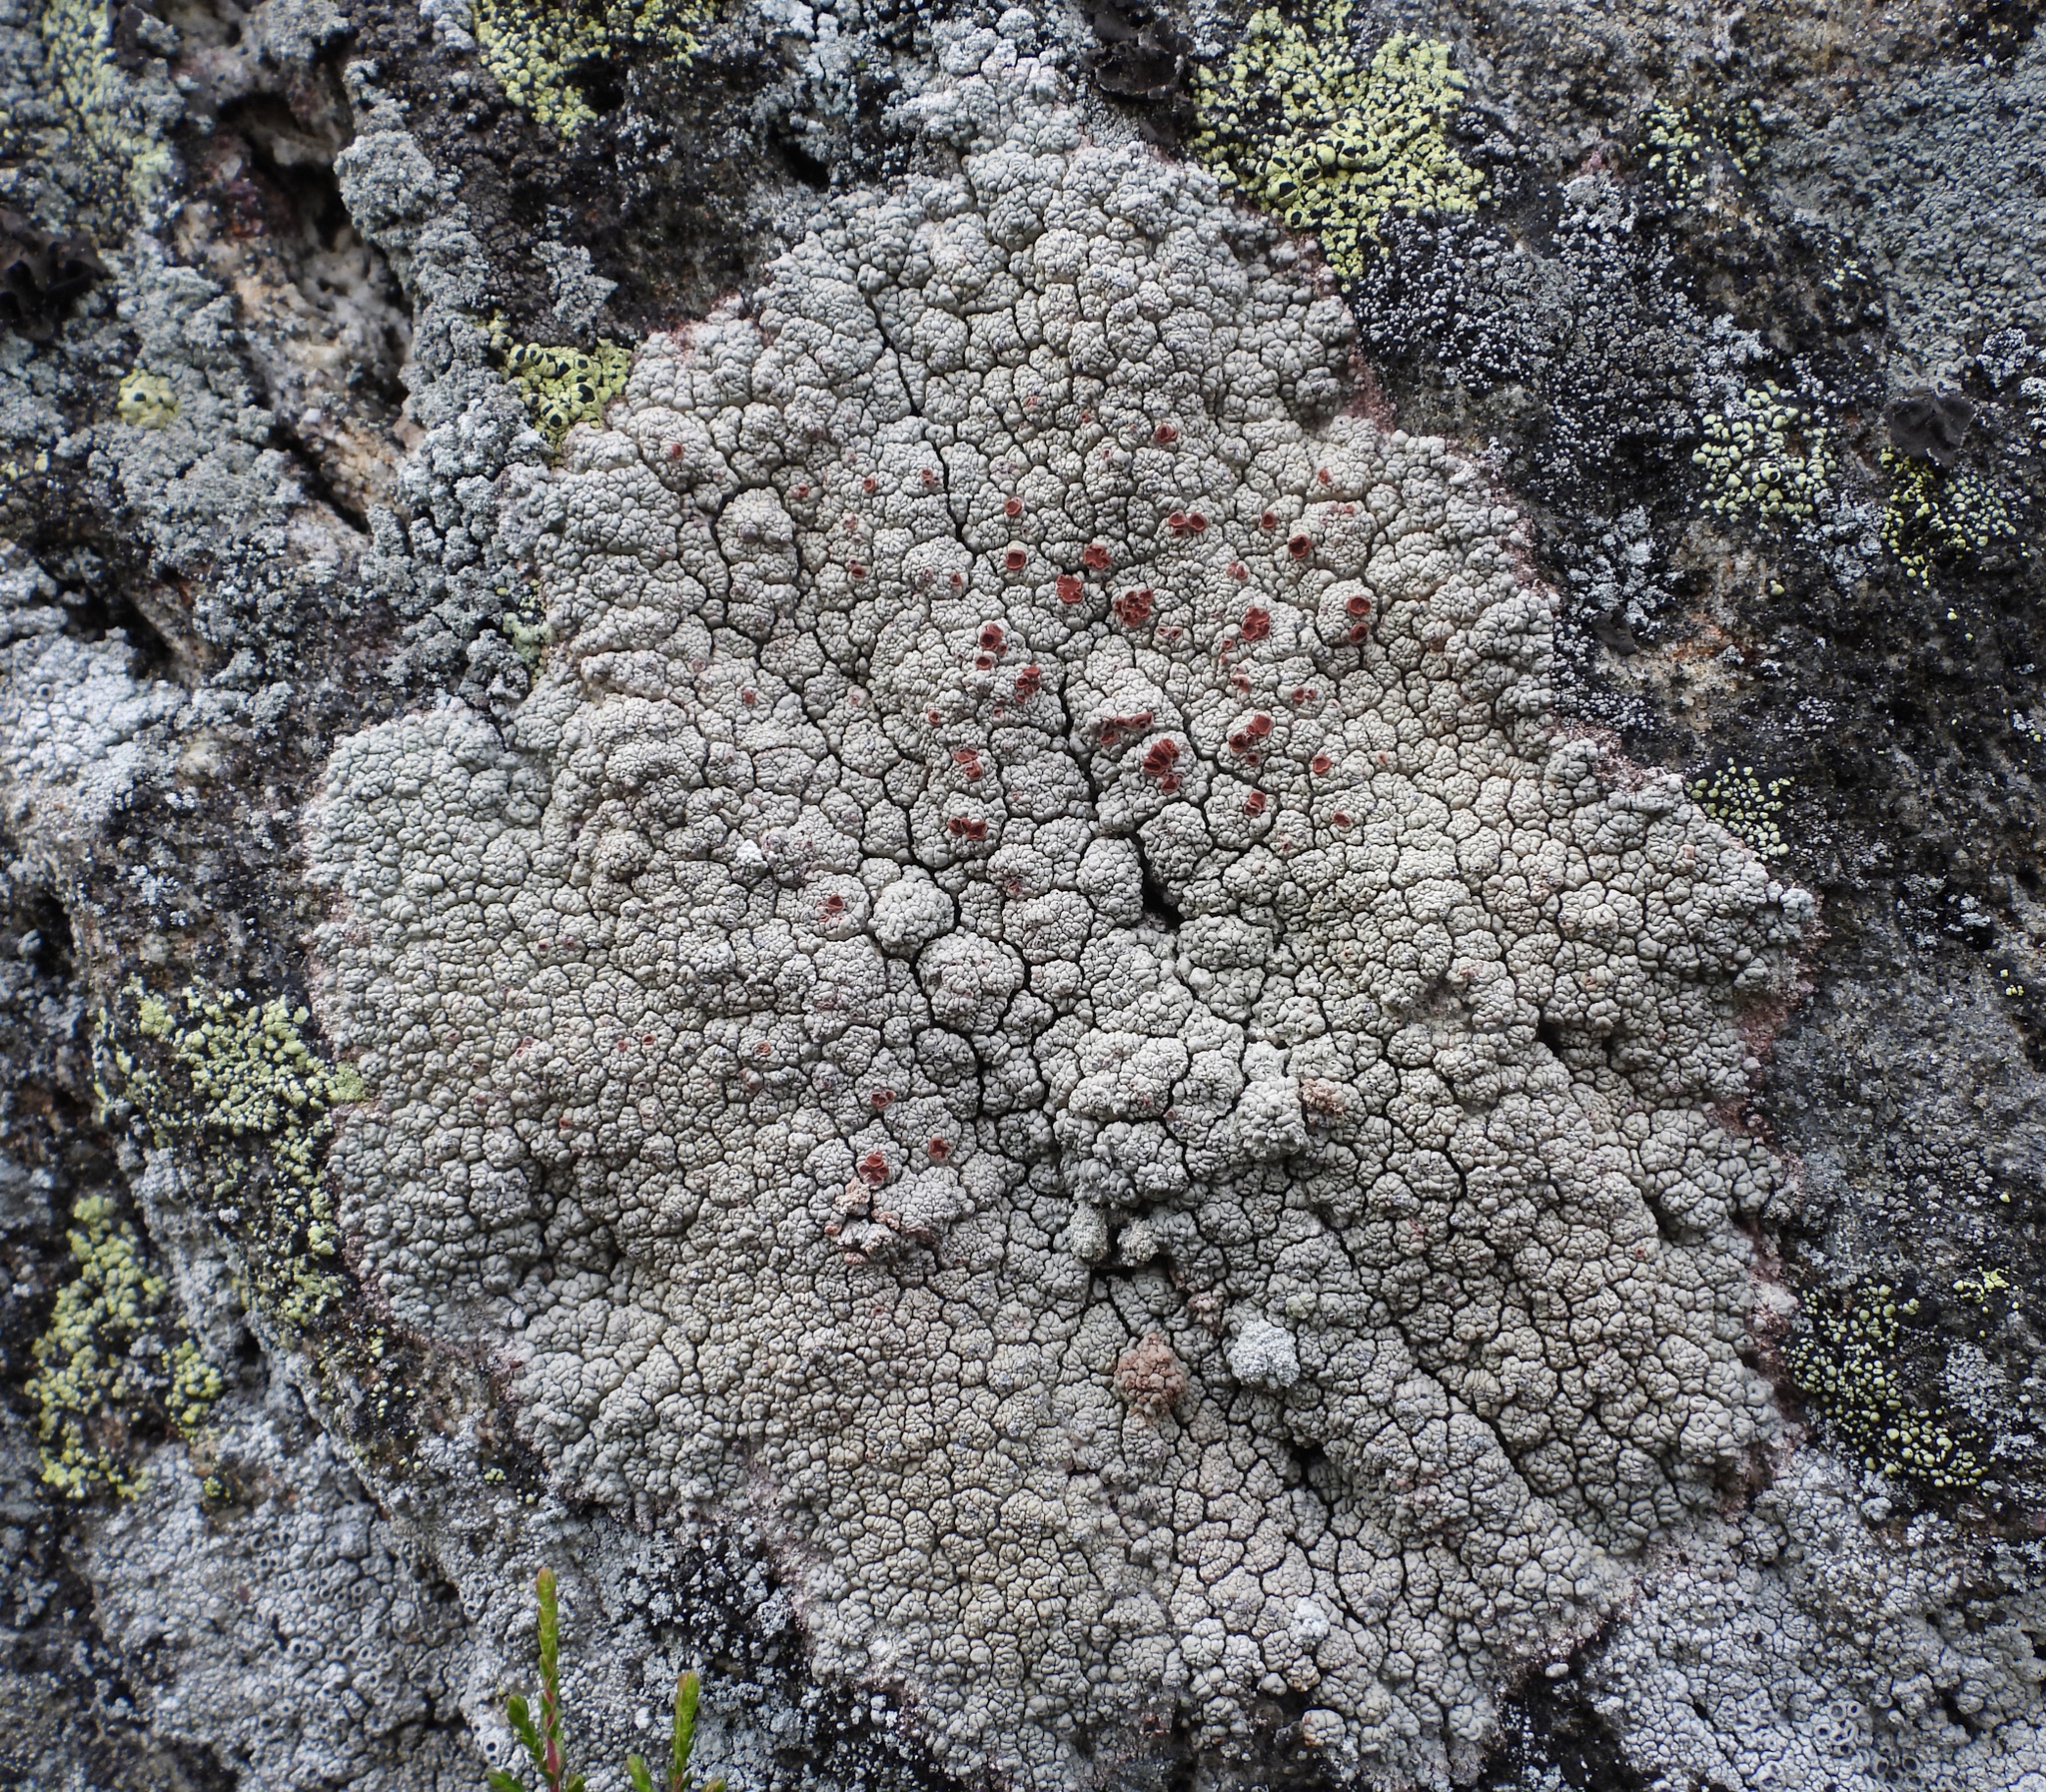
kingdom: Fungi
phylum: Ascomycota
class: Lecanoromycetes
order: Umbilicariales
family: Ophioparmaceae
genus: Ophioparma
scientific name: Ophioparma ventosa
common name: Blood-spot
